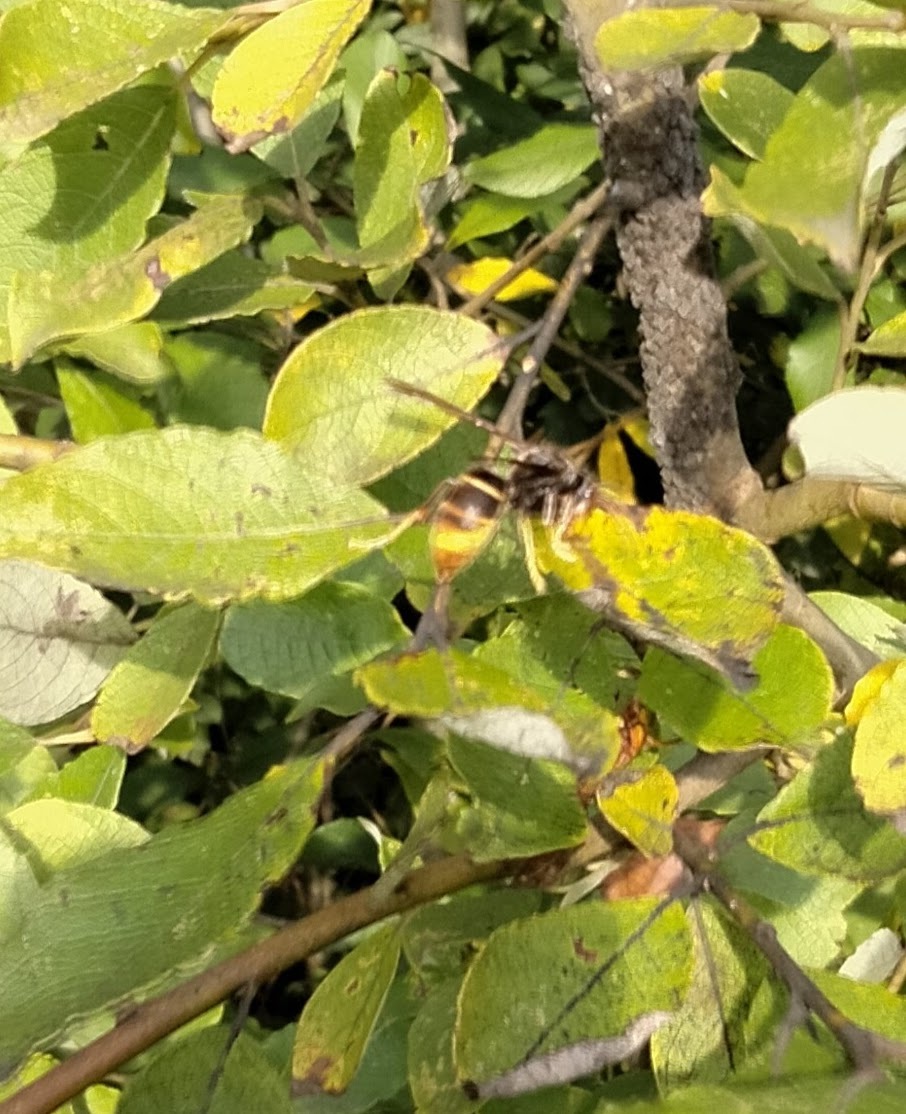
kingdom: Animalia
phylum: Arthropoda
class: Insecta
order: Hymenoptera
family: Vespidae
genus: Vespa
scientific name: Vespa velutina
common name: Asian hornet
